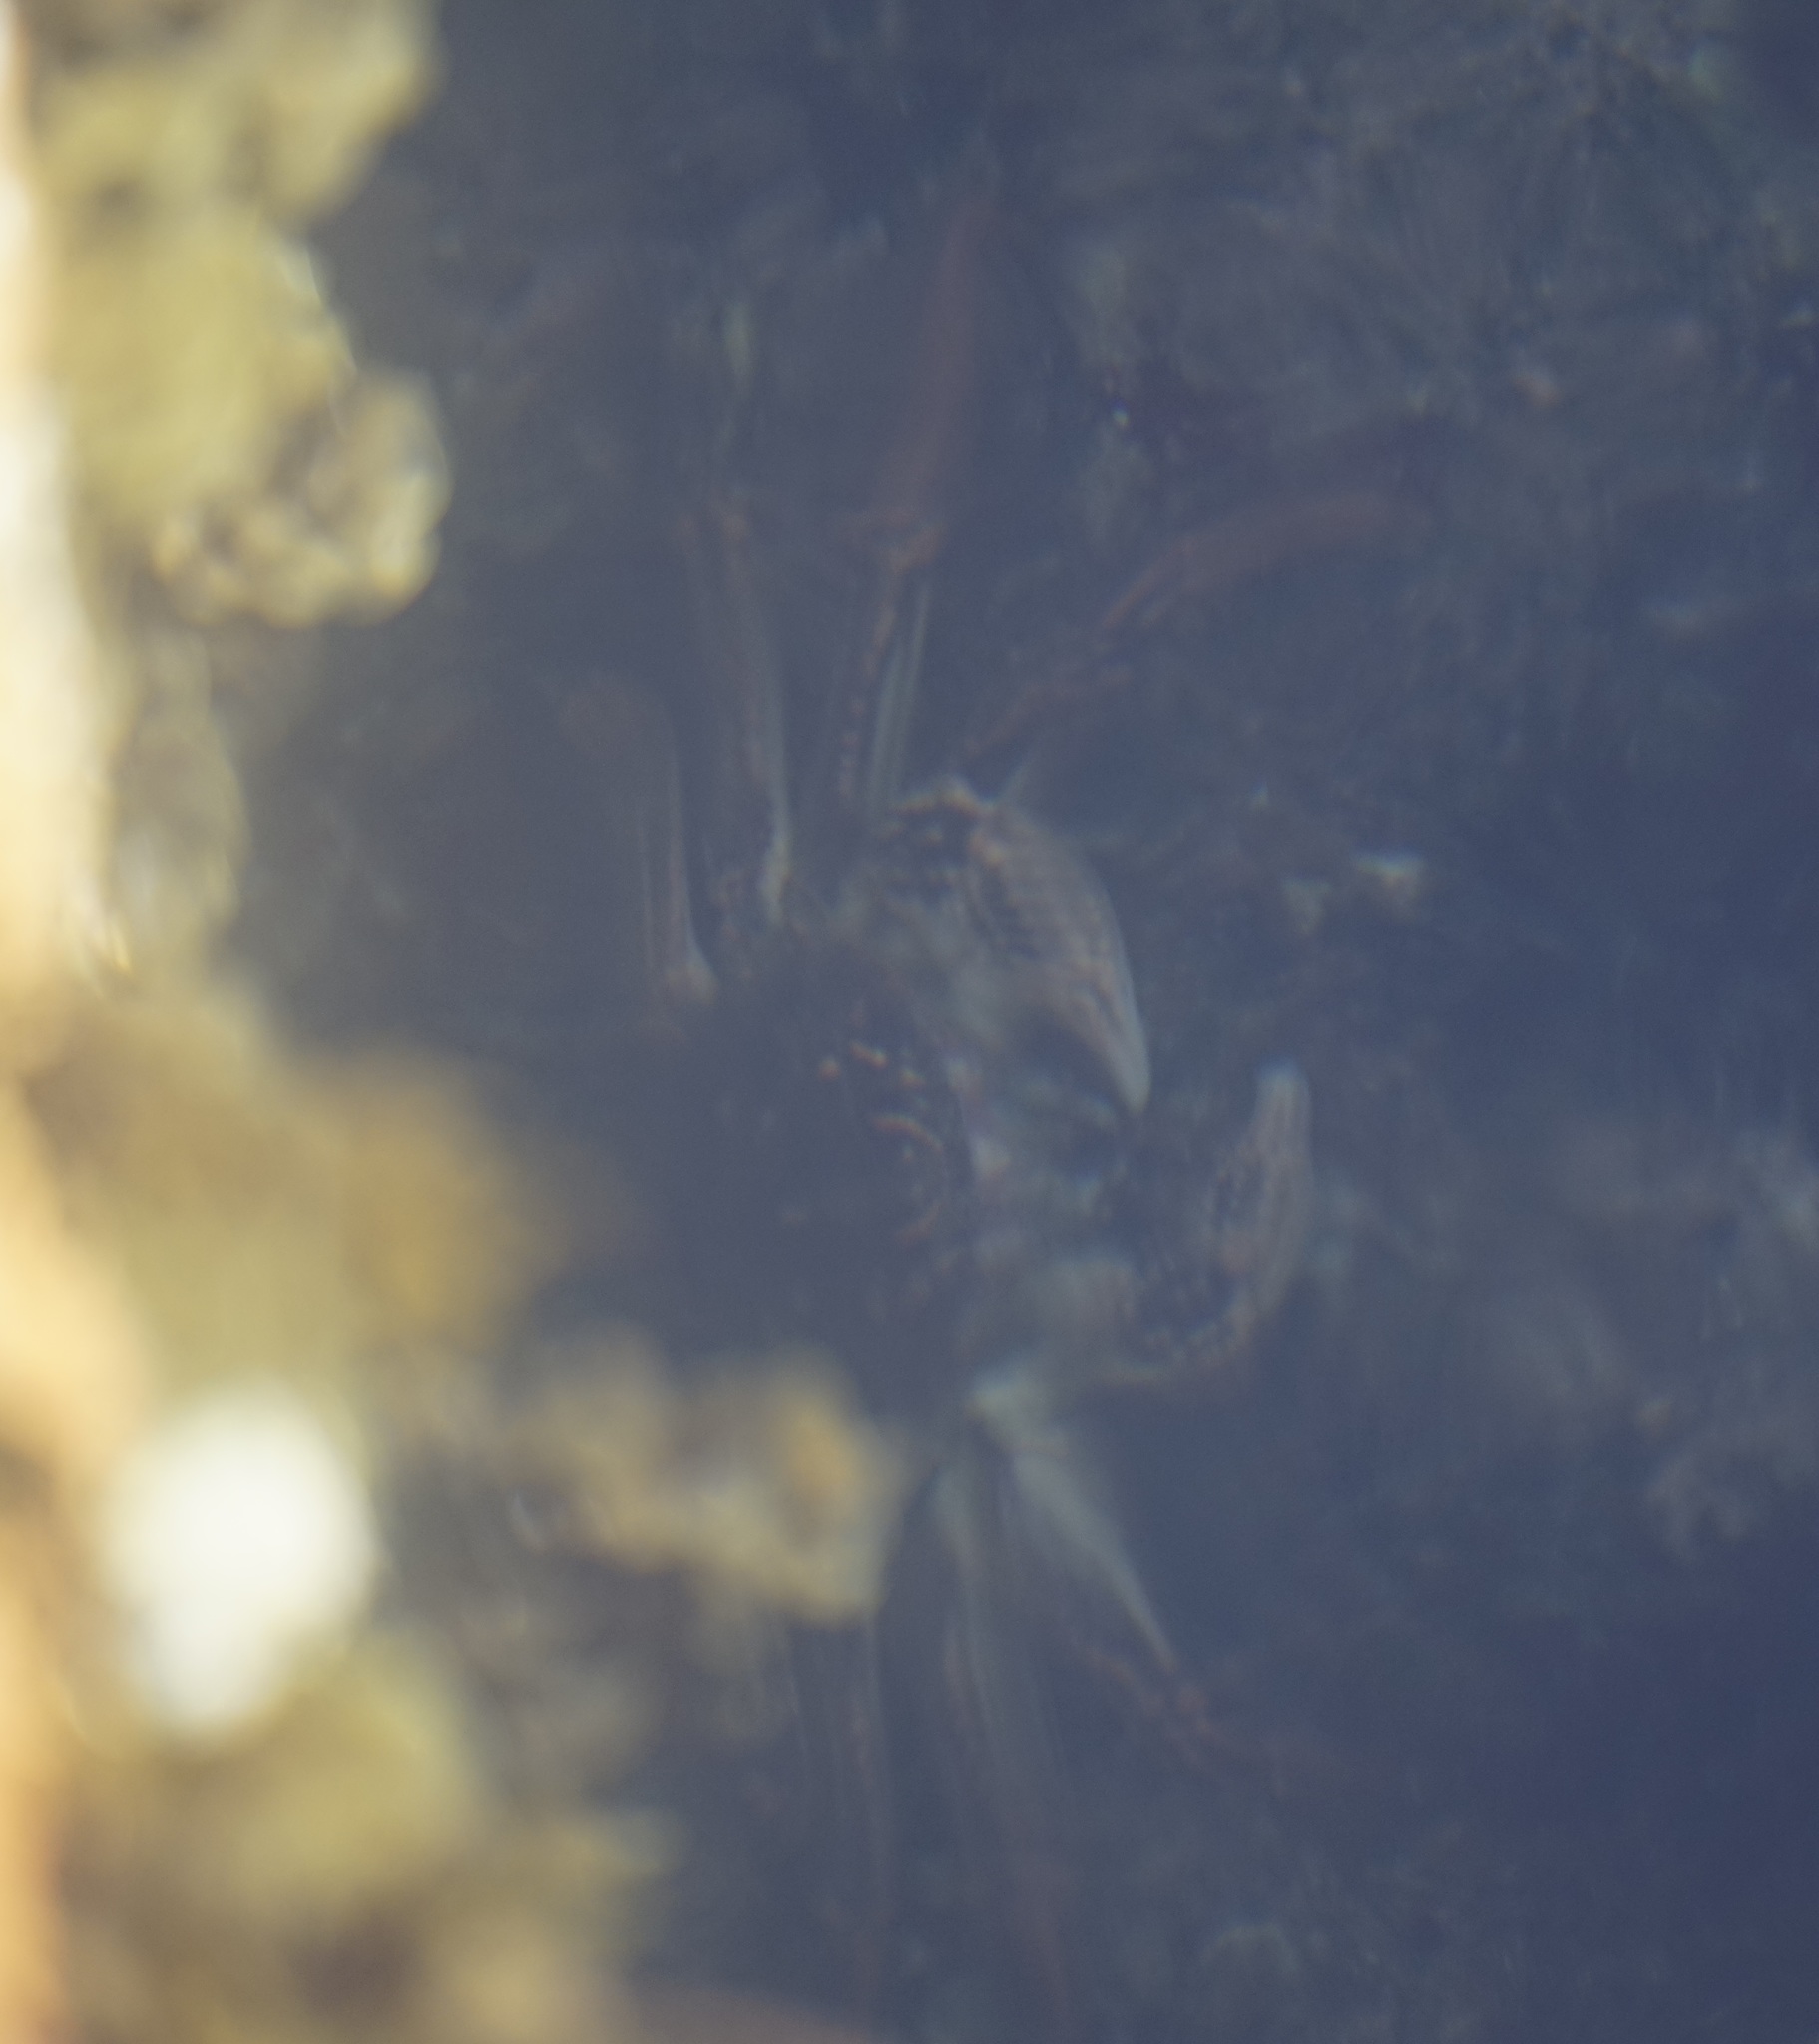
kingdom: Animalia
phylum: Arthropoda
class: Malacostraca
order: Decapoda
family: Plagusiidae
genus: Guinusia
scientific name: Guinusia chabrus
